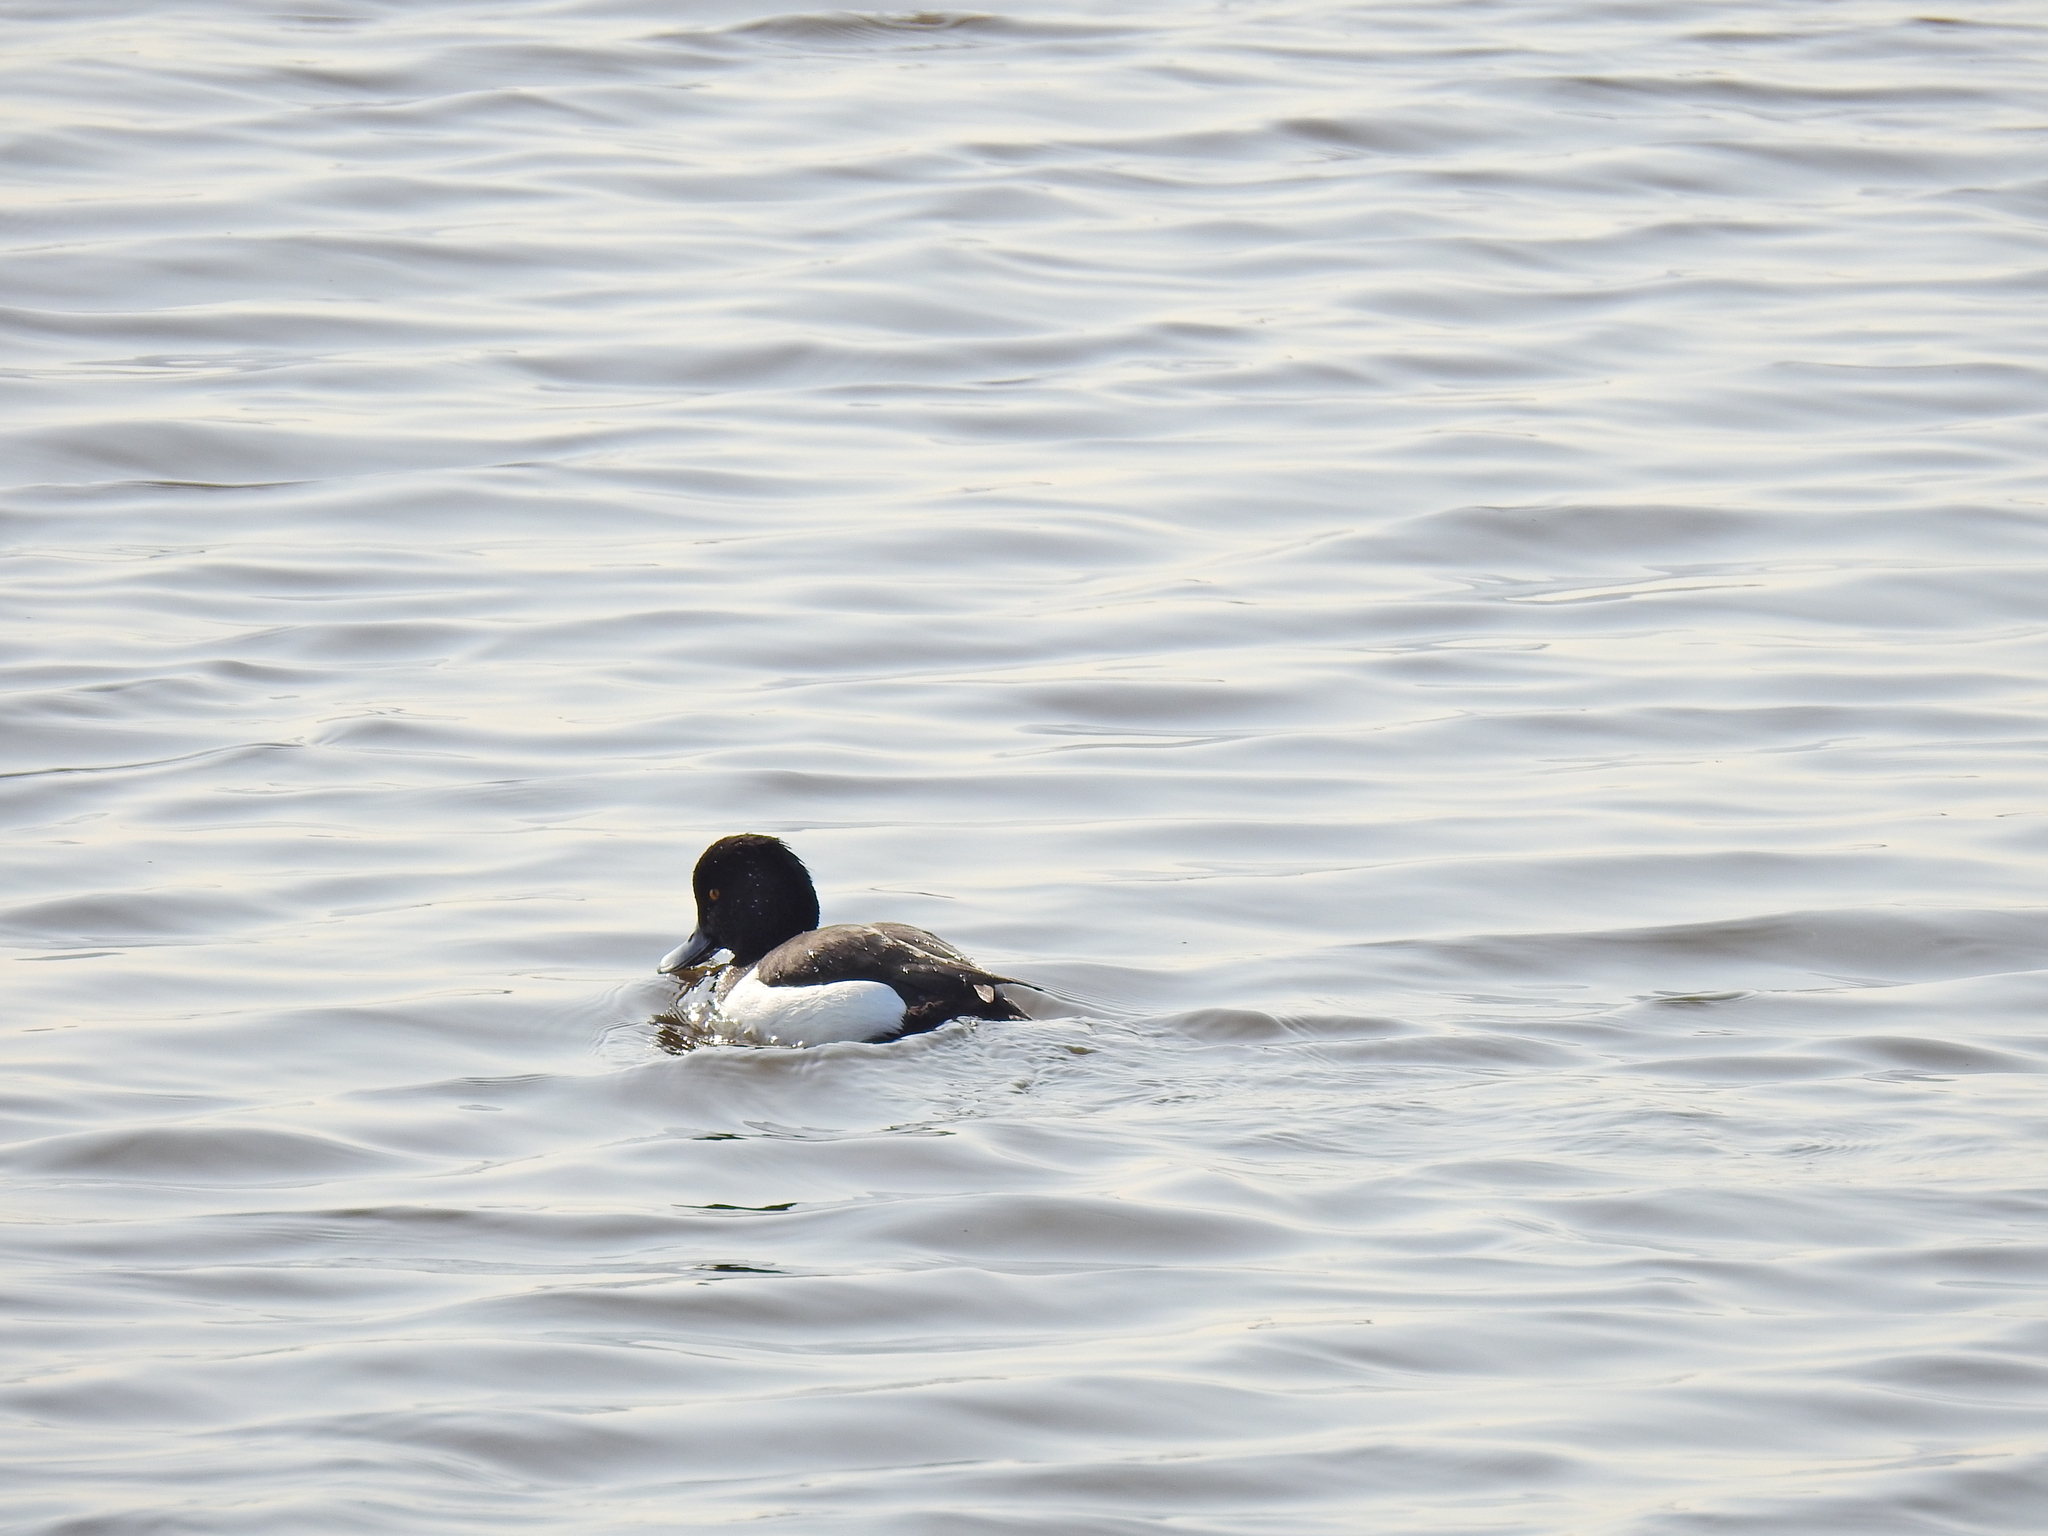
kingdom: Animalia
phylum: Chordata
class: Aves
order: Anseriformes
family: Anatidae
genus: Aythya
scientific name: Aythya fuligula
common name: Tufted duck
